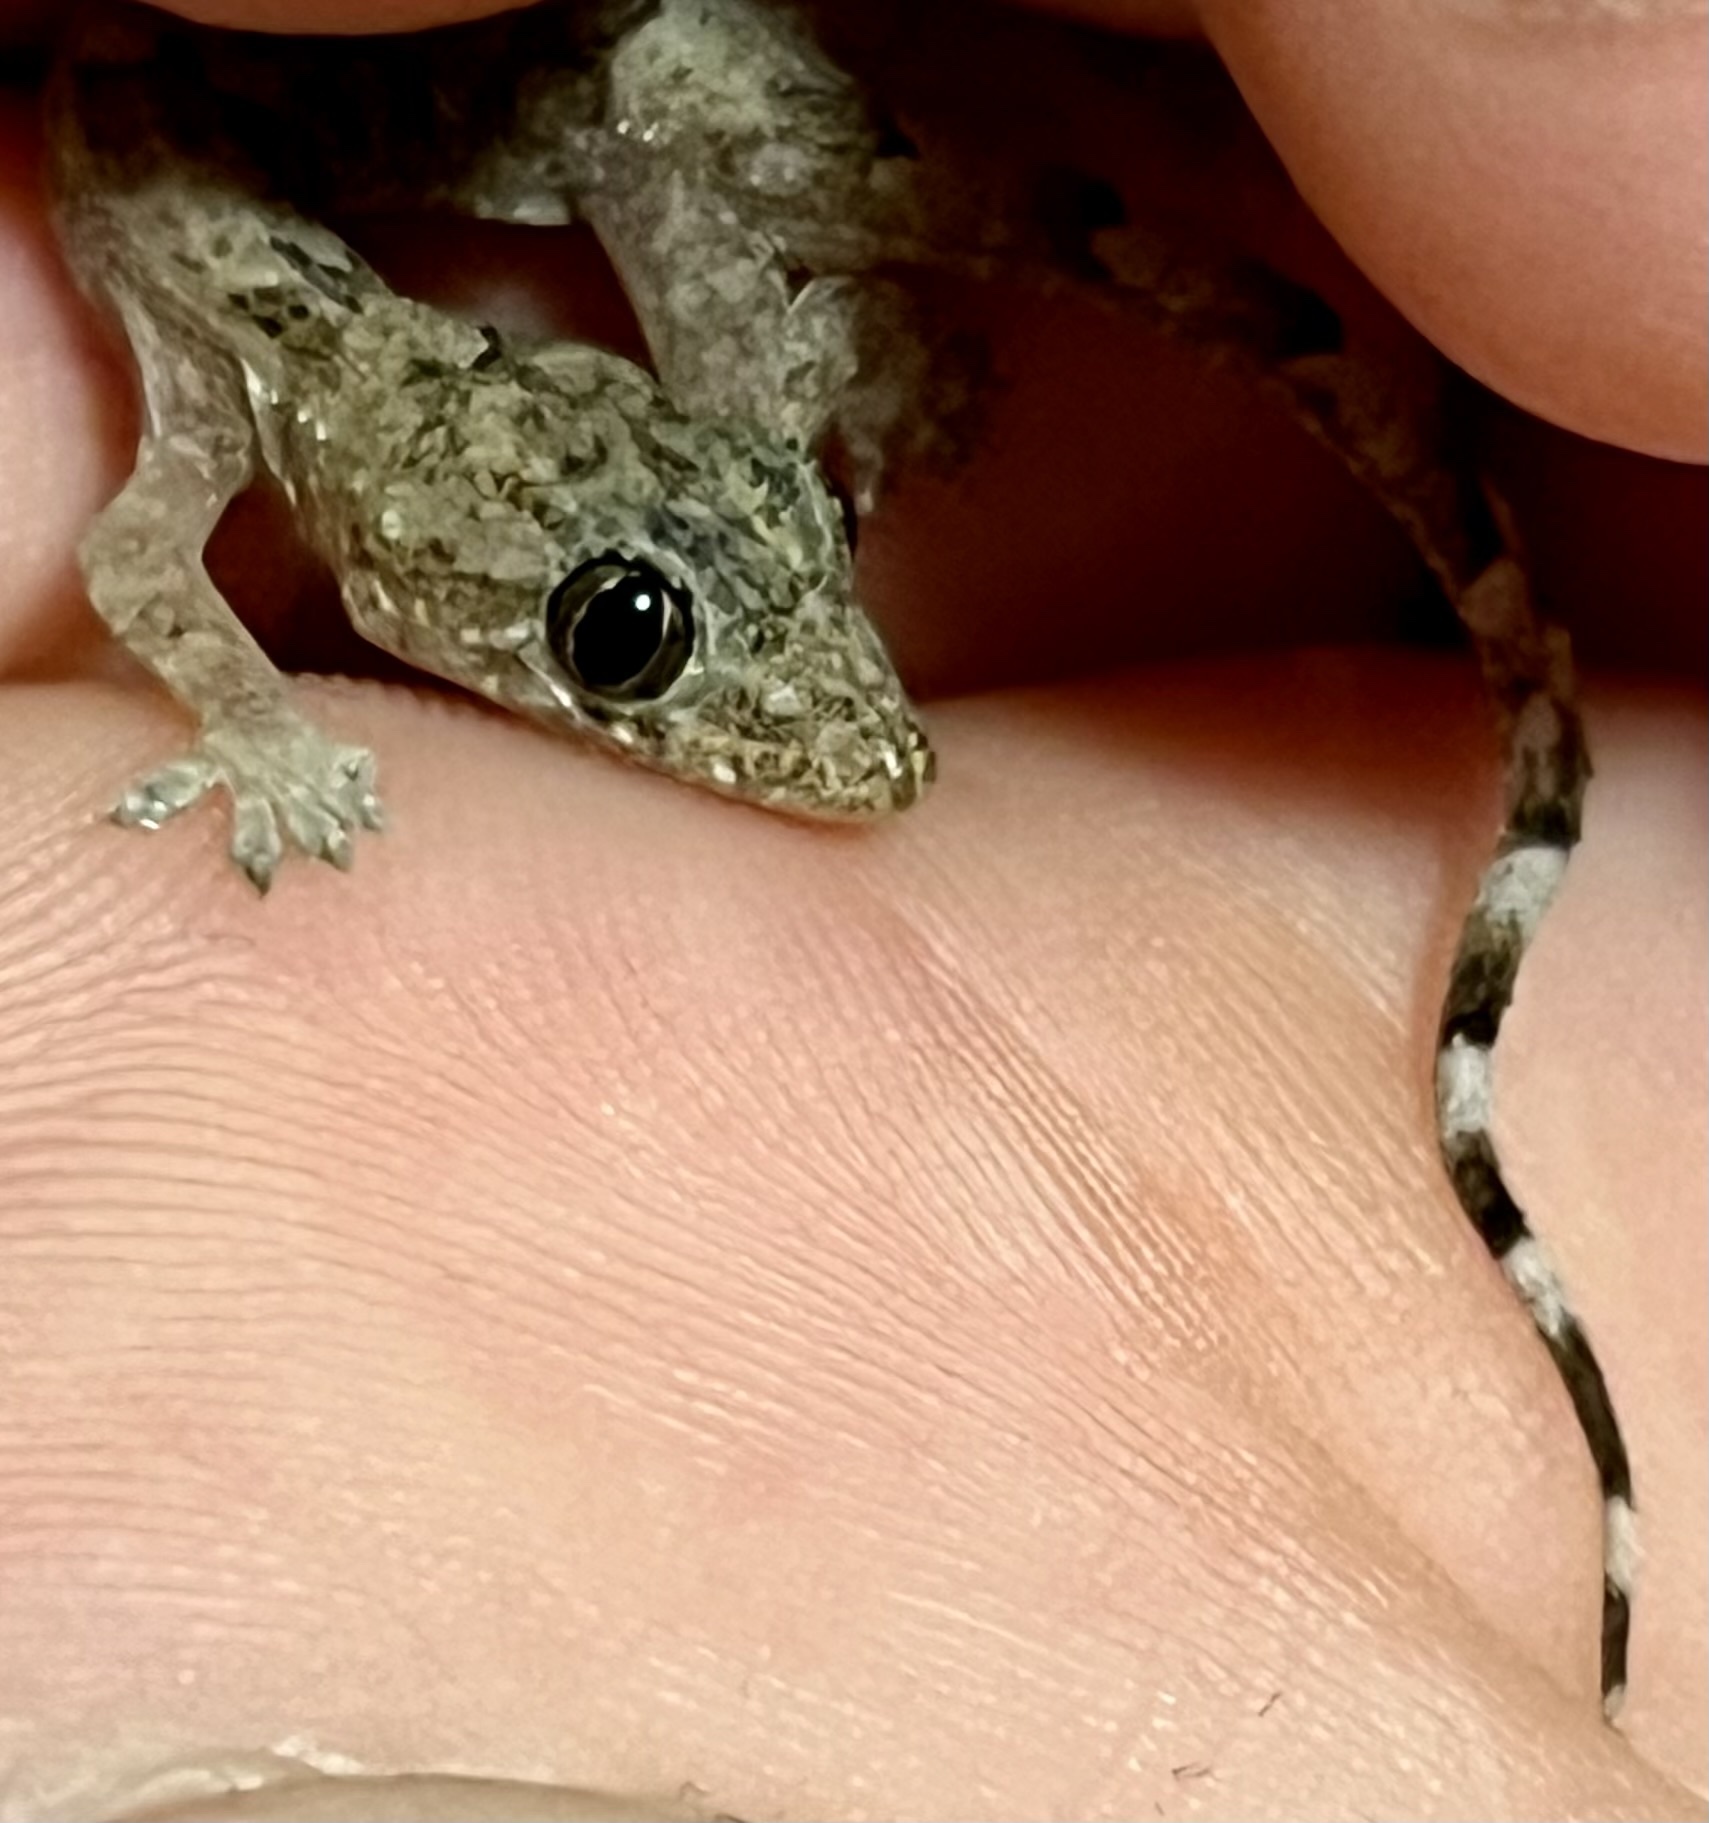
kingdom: Animalia
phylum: Chordata
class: Squamata
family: Gekkonidae
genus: Hemidactylus
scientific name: Hemidactylus mabouia
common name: House gecko
